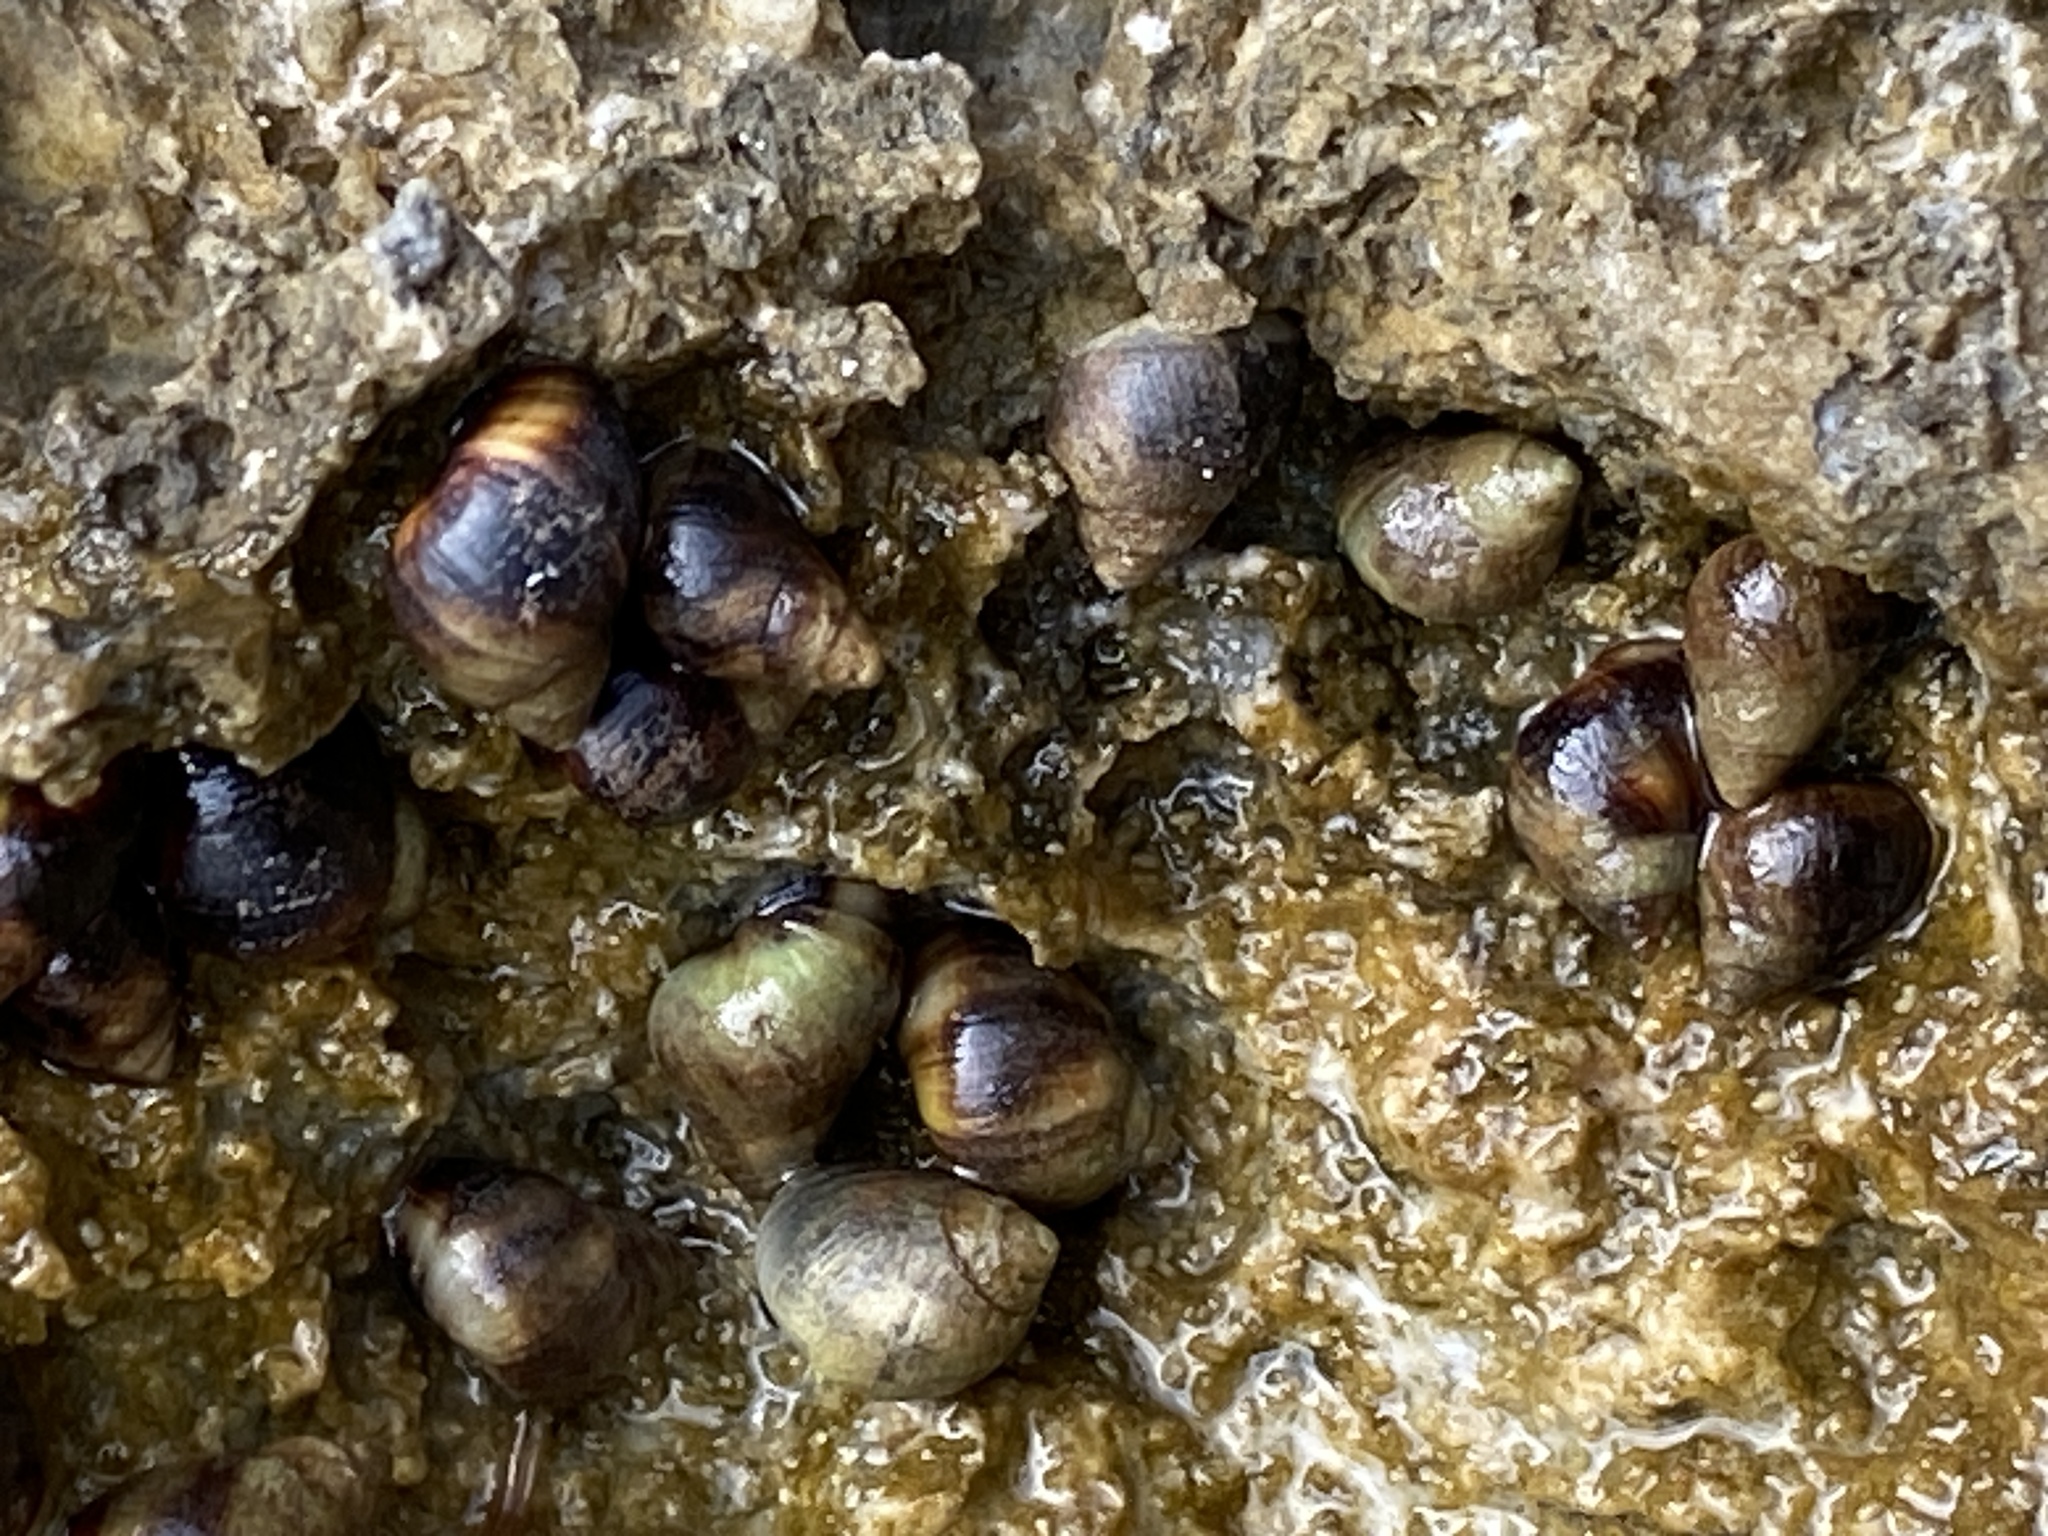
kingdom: Animalia
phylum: Mollusca
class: Gastropoda
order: Littorinimorpha
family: Littorinidae
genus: Melarhaphe
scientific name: Melarhaphe neritoides
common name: Small periwinkle
